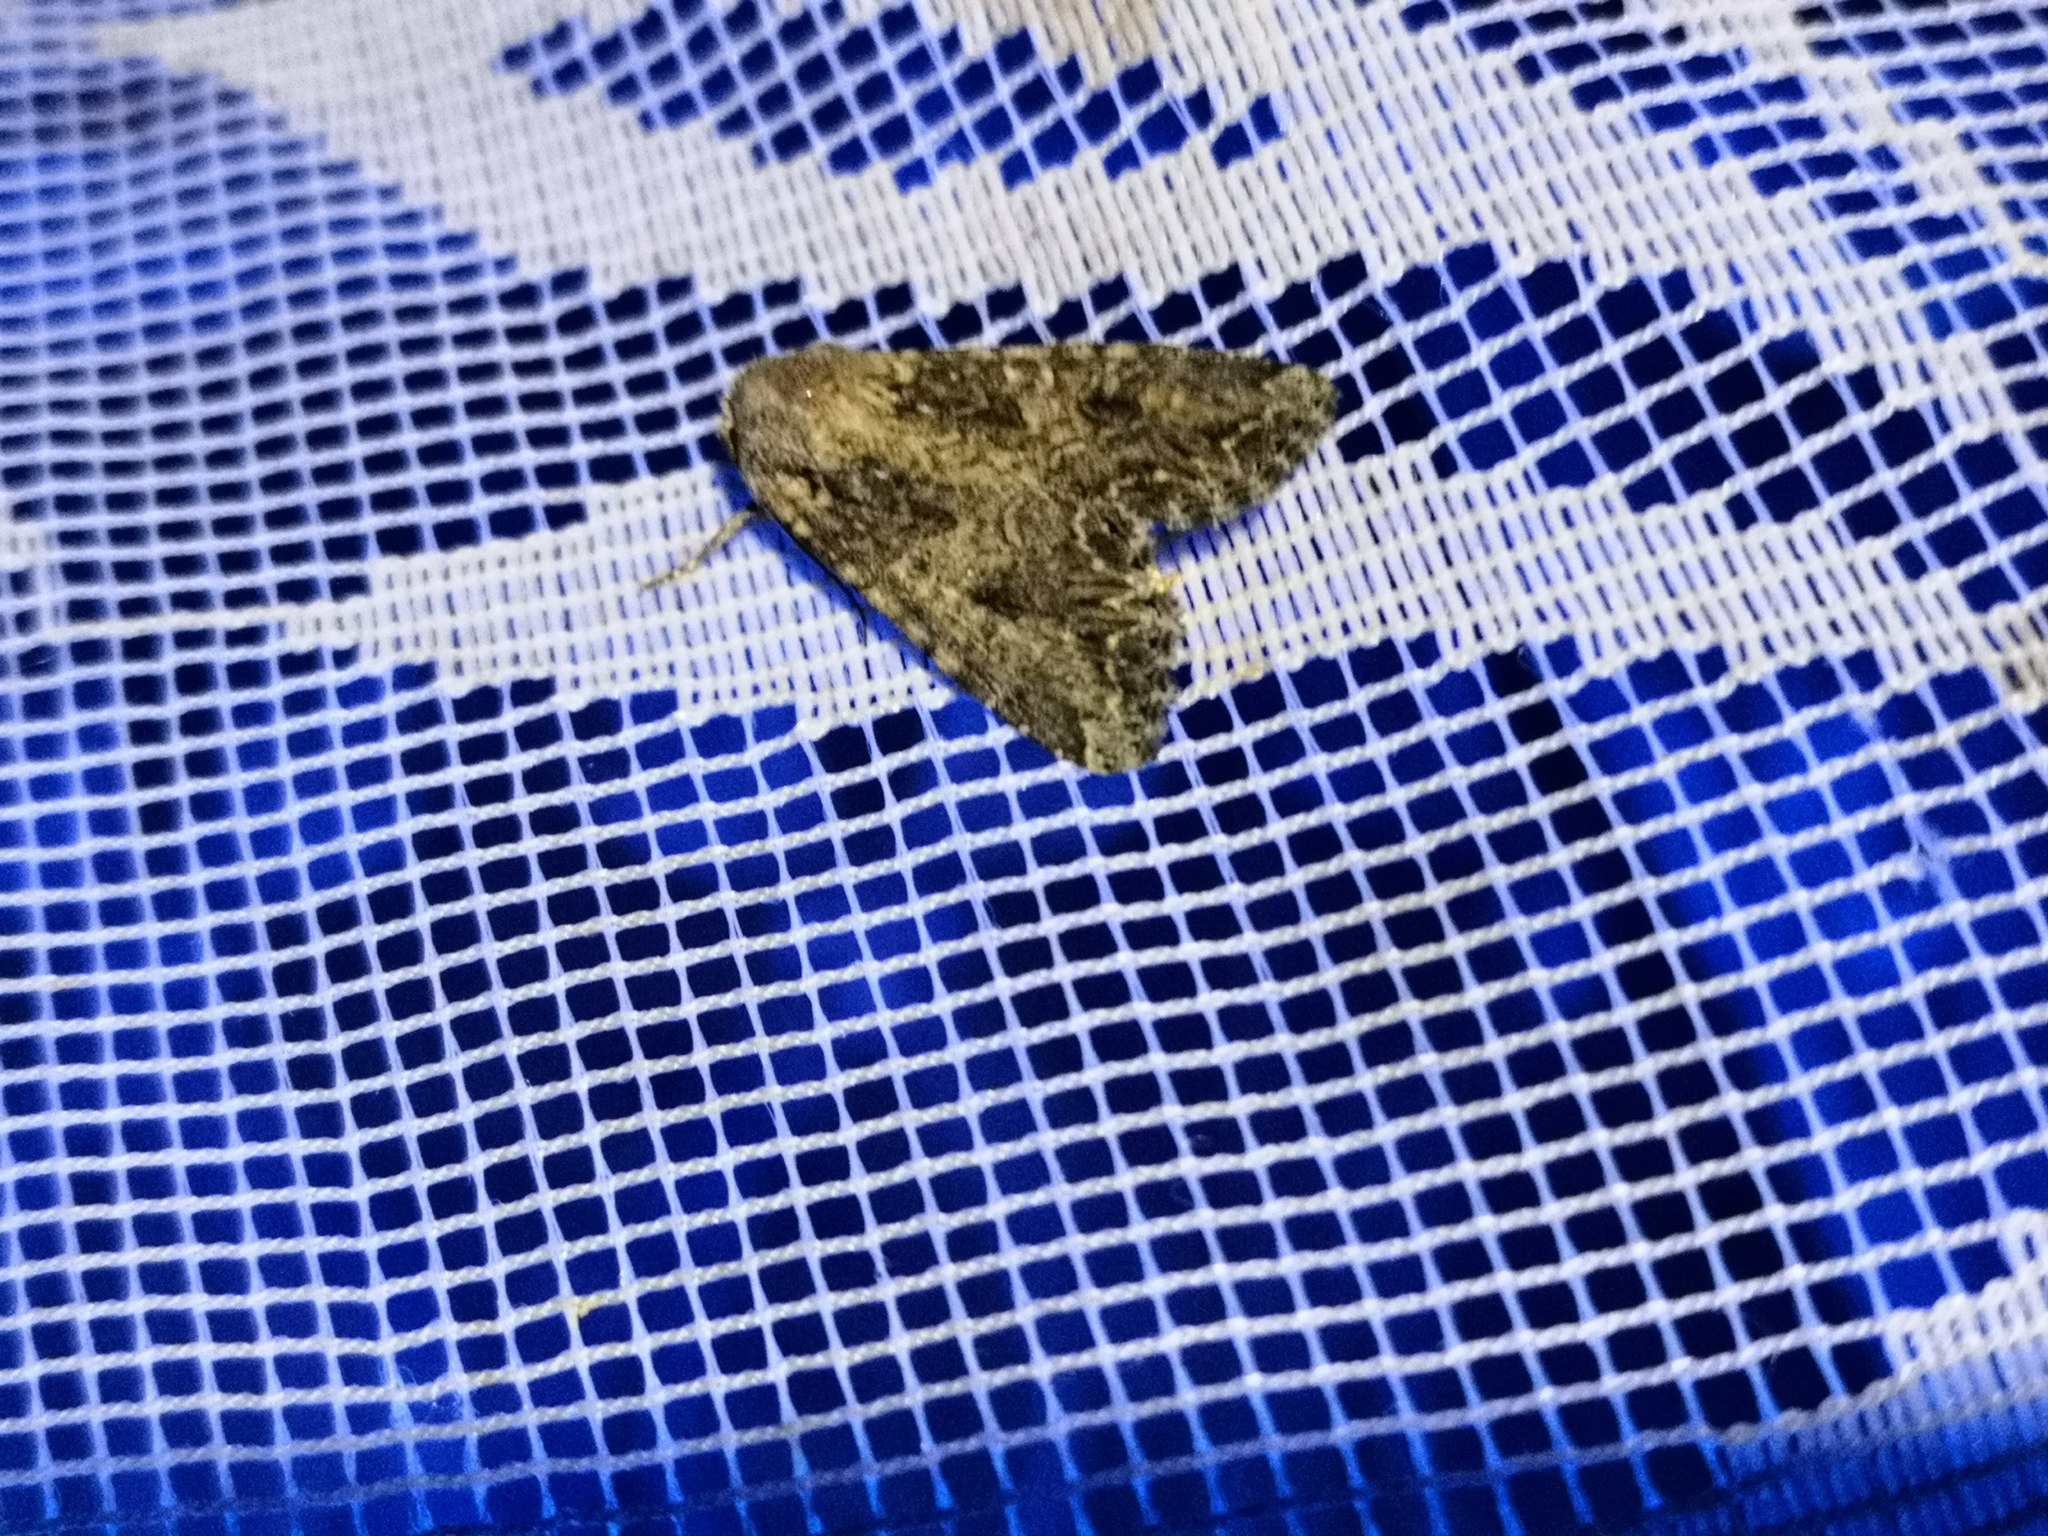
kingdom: Animalia
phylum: Arthropoda
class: Insecta
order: Lepidoptera
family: Noctuidae
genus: Anarta
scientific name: Anarta trifolii
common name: Clover cutworm moth
